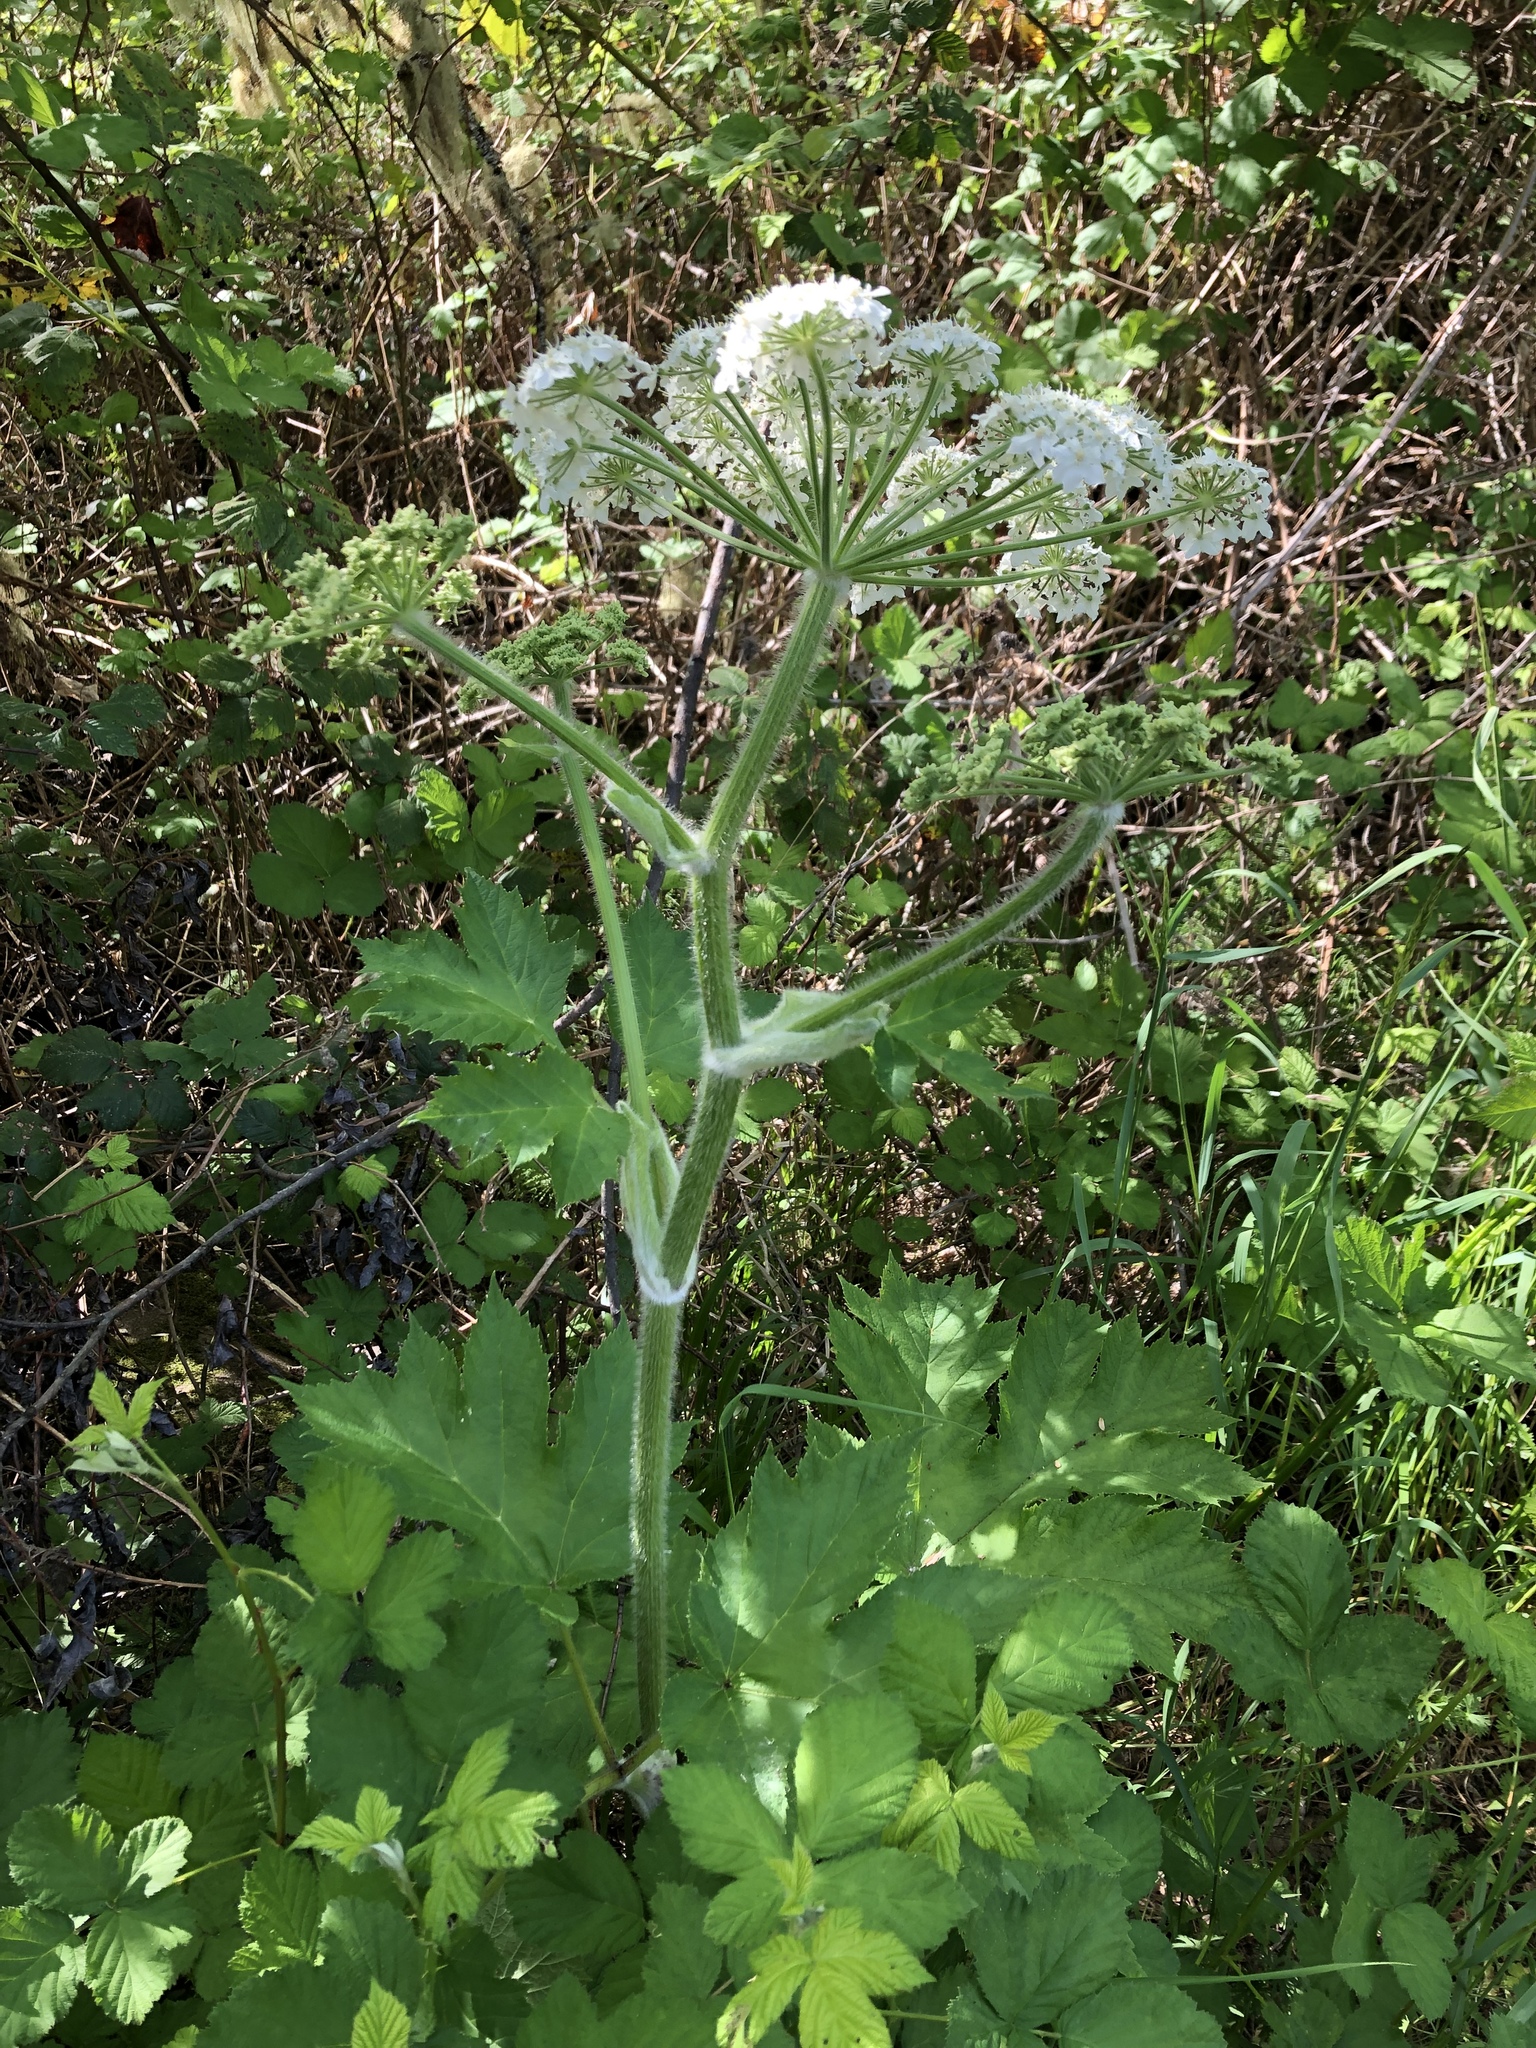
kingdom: Plantae
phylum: Tracheophyta
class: Magnoliopsida
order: Apiales
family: Apiaceae
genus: Heracleum
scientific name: Heracleum maximum
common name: American cow parsnip
